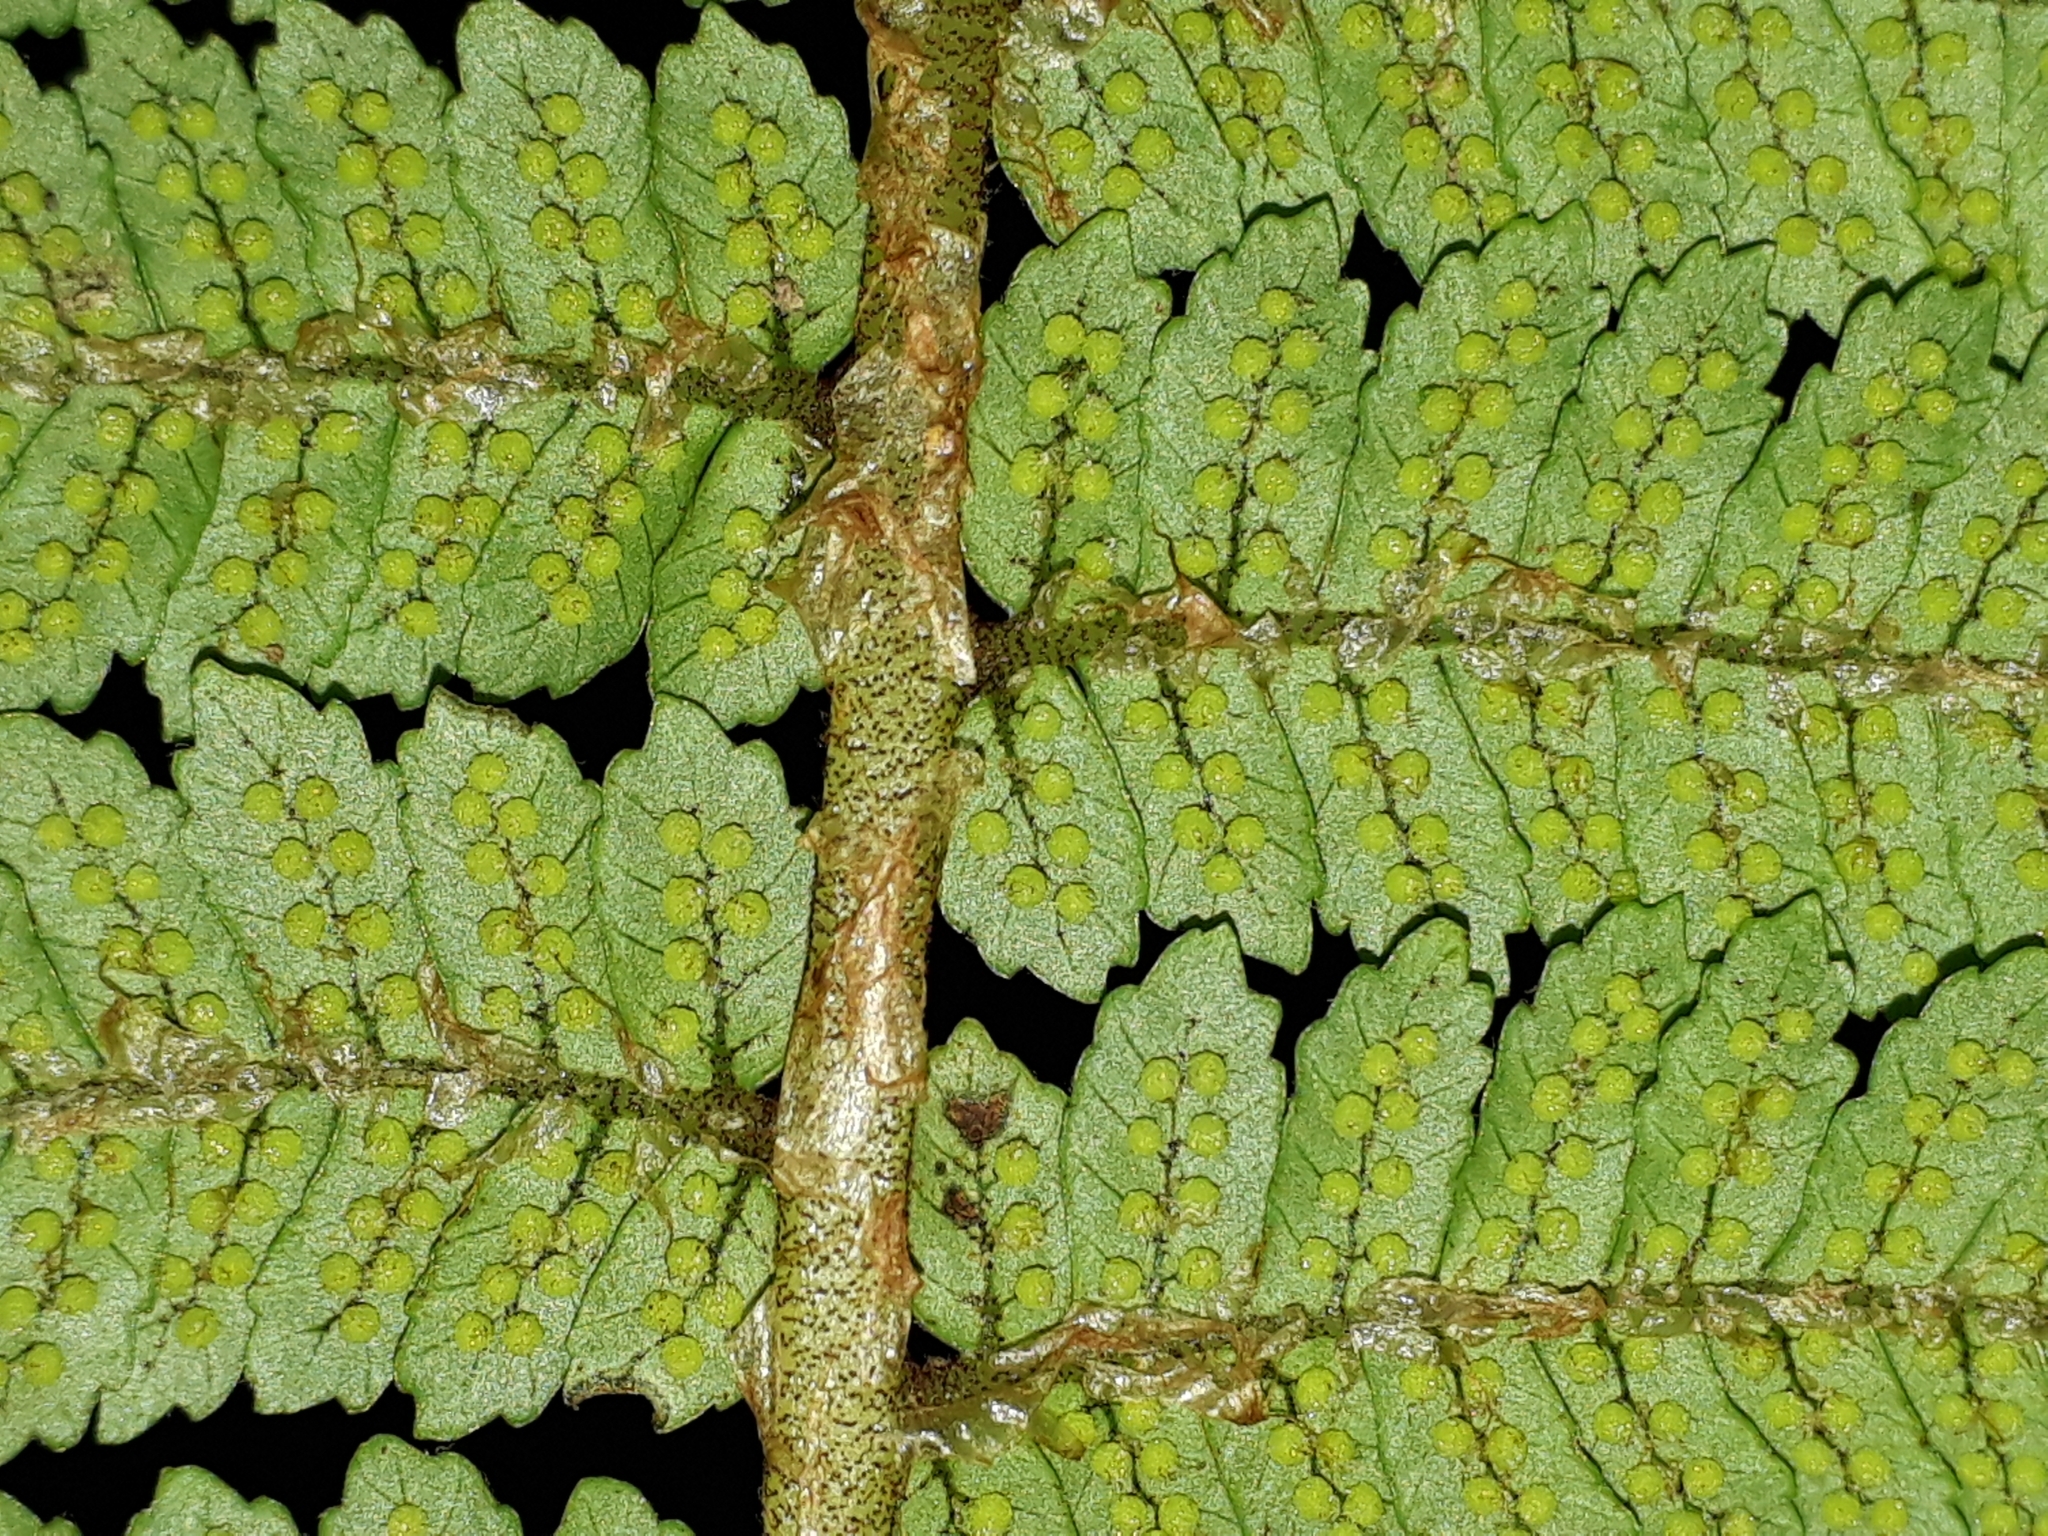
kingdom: Plantae
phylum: Tracheophyta
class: Polypodiopsida
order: Cyatheales
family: Cyatheaceae
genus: Alsophila
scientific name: Alsophila colensoi
